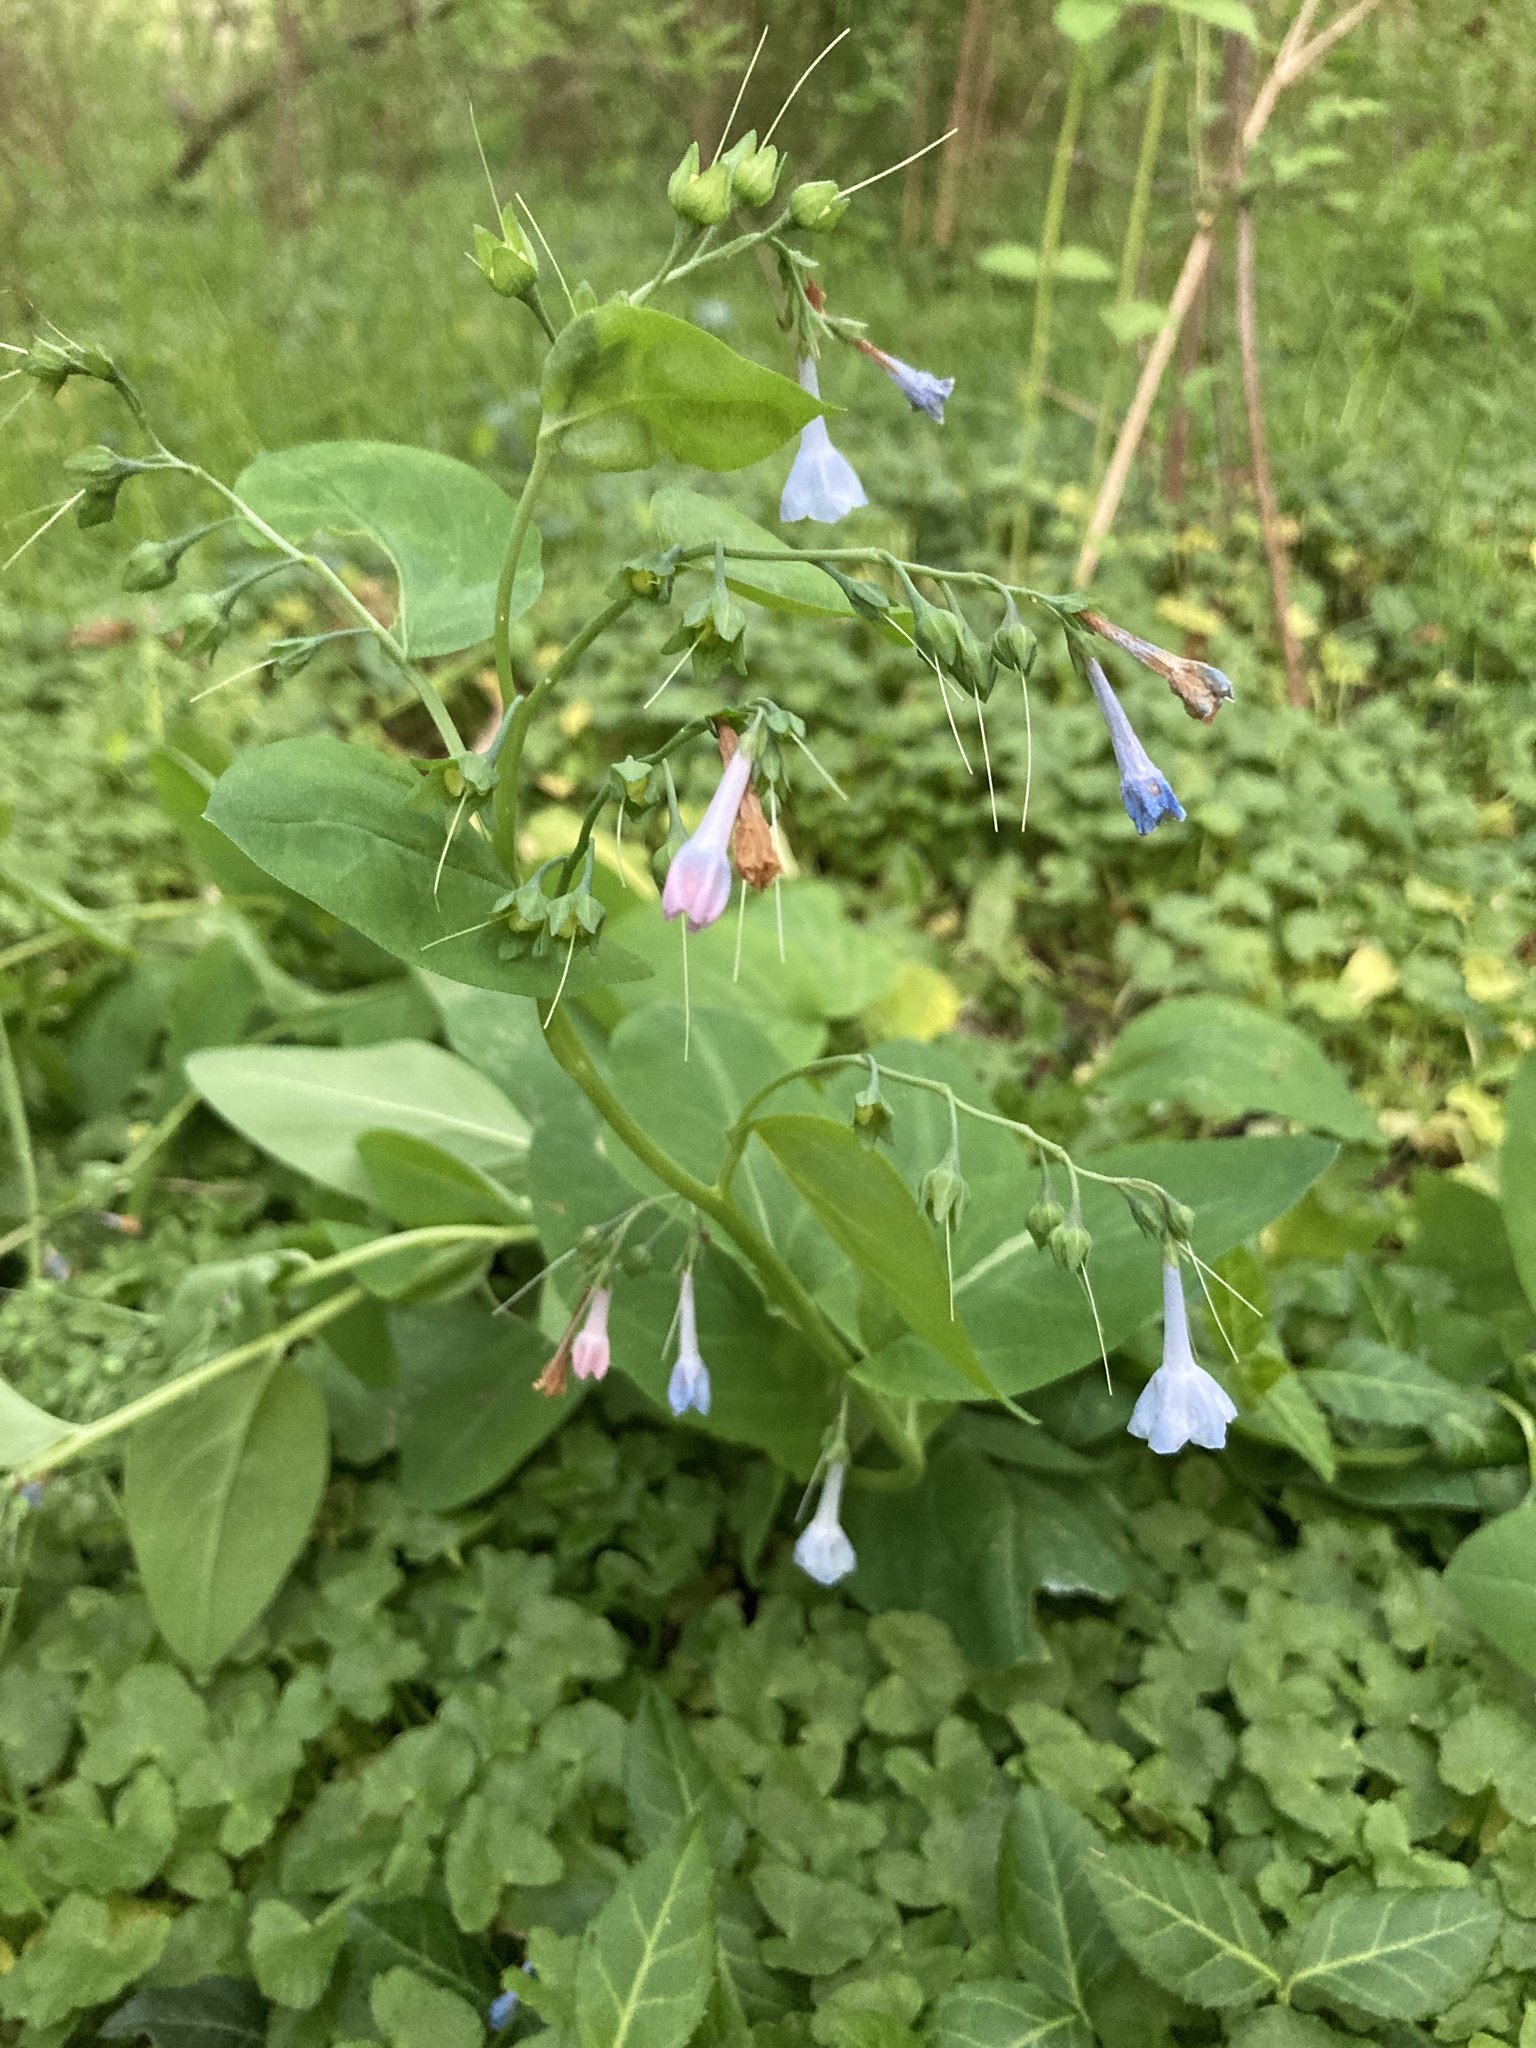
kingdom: Plantae
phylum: Tracheophyta
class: Magnoliopsida
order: Boraginales
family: Boraginaceae
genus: Mertensia
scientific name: Mertensia virginica
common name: Virginia bluebells
